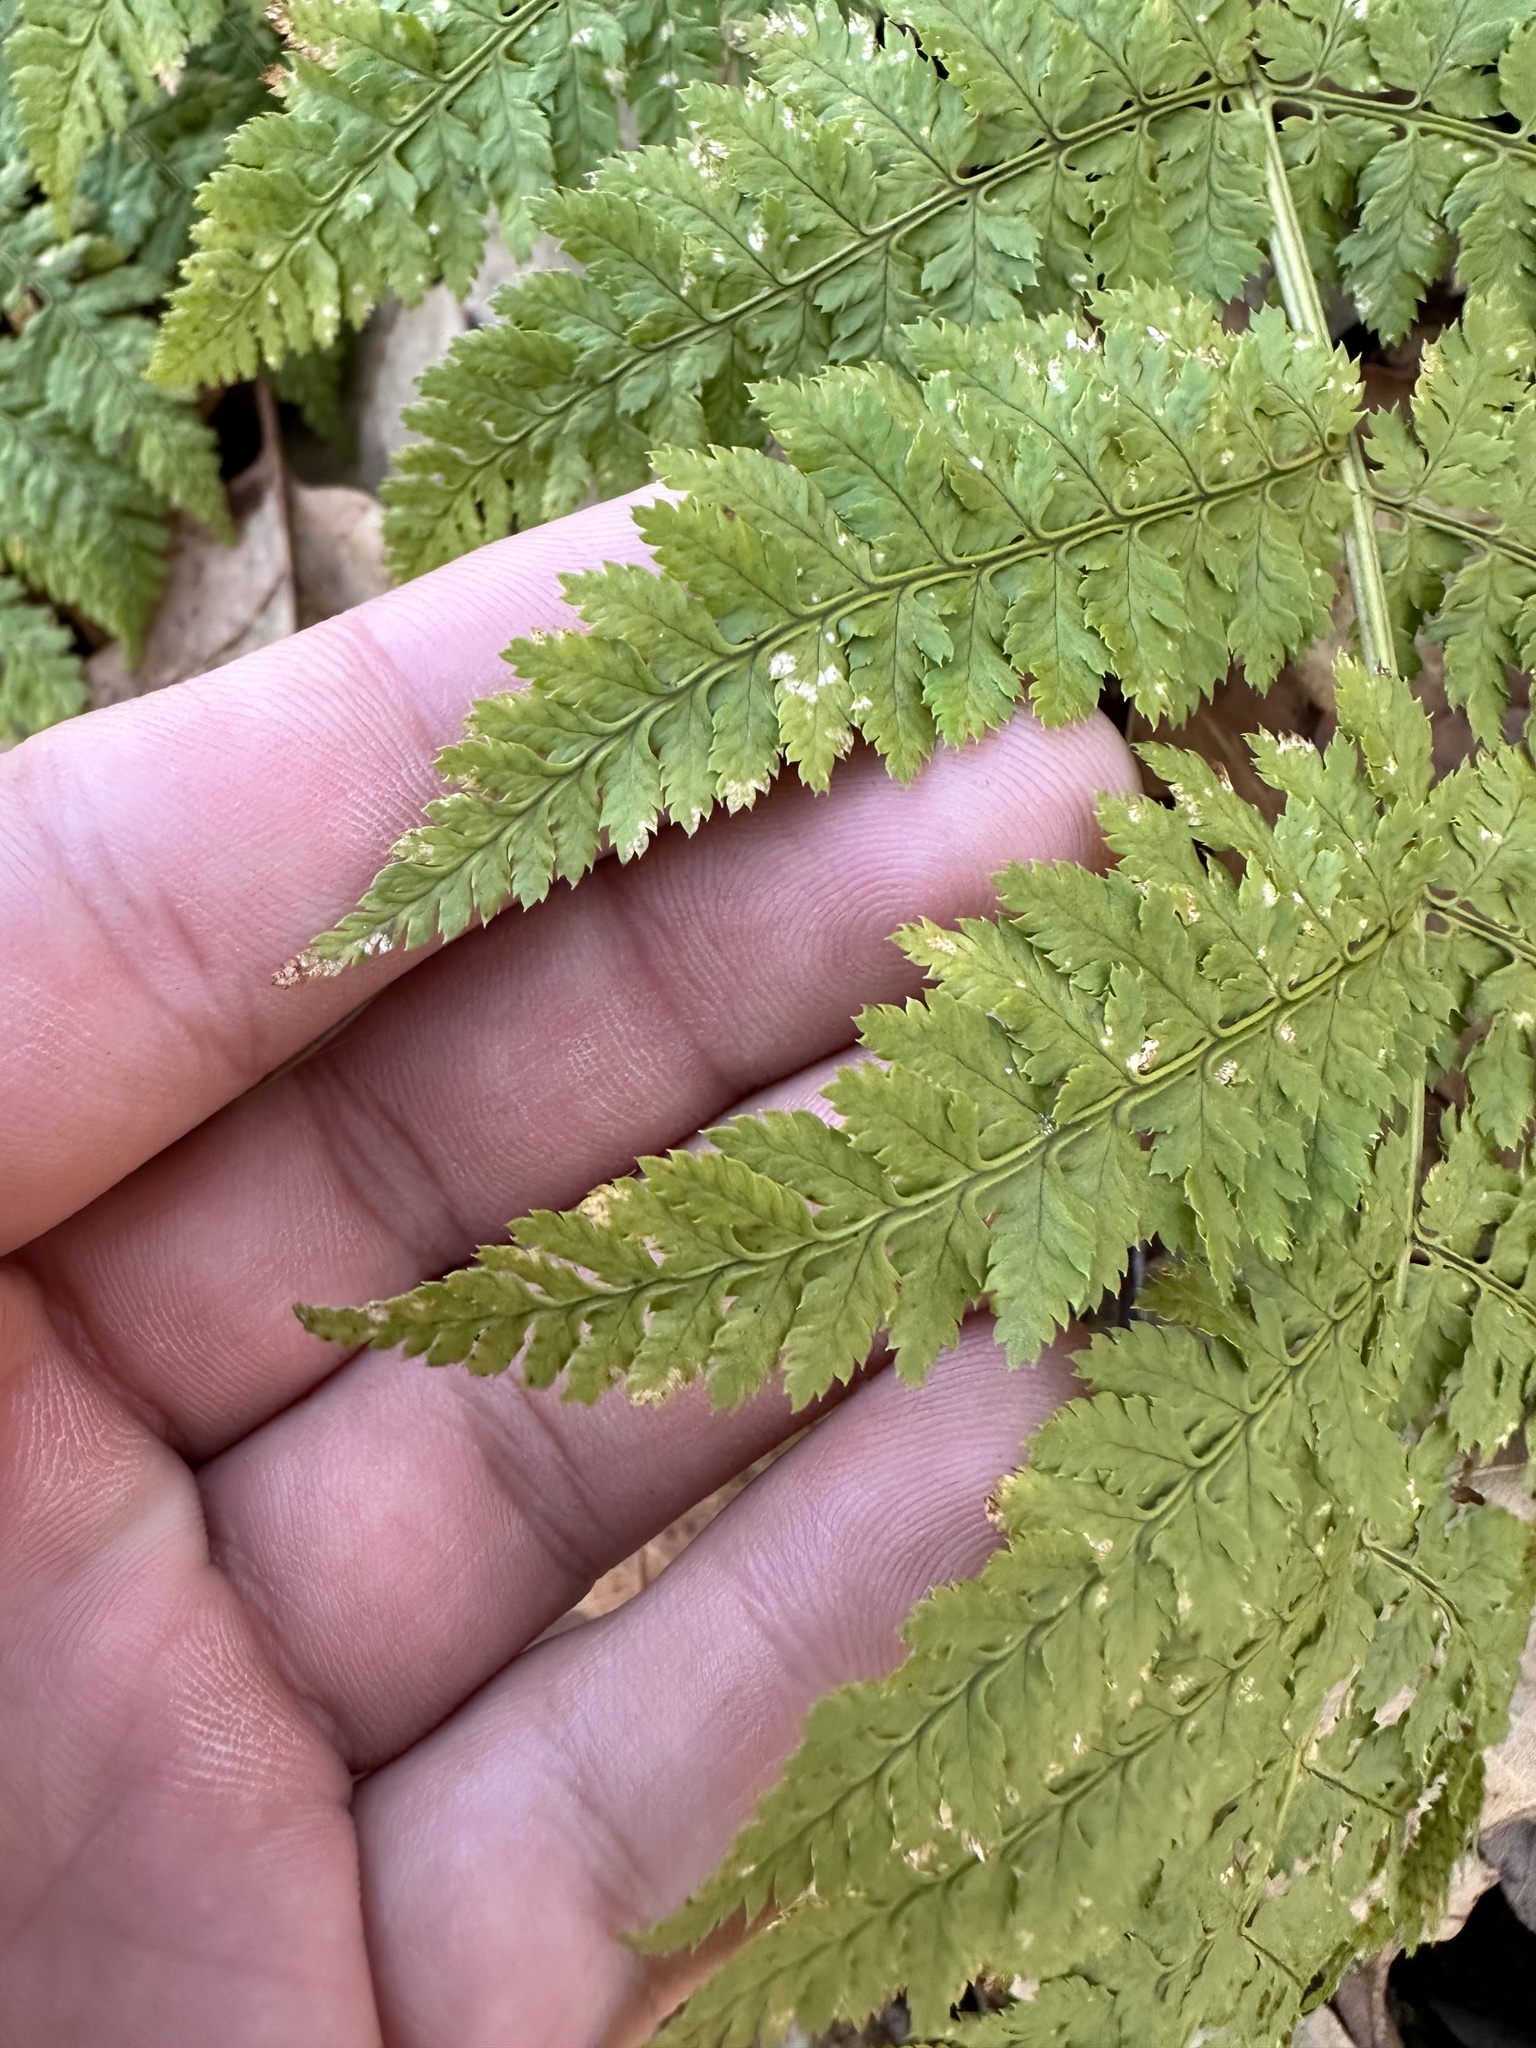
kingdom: Plantae
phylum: Tracheophyta
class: Polypodiopsida
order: Polypodiales
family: Dryopteridaceae
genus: Dryopteris
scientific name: Dryopteris intermedia
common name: Evergreen wood fern
